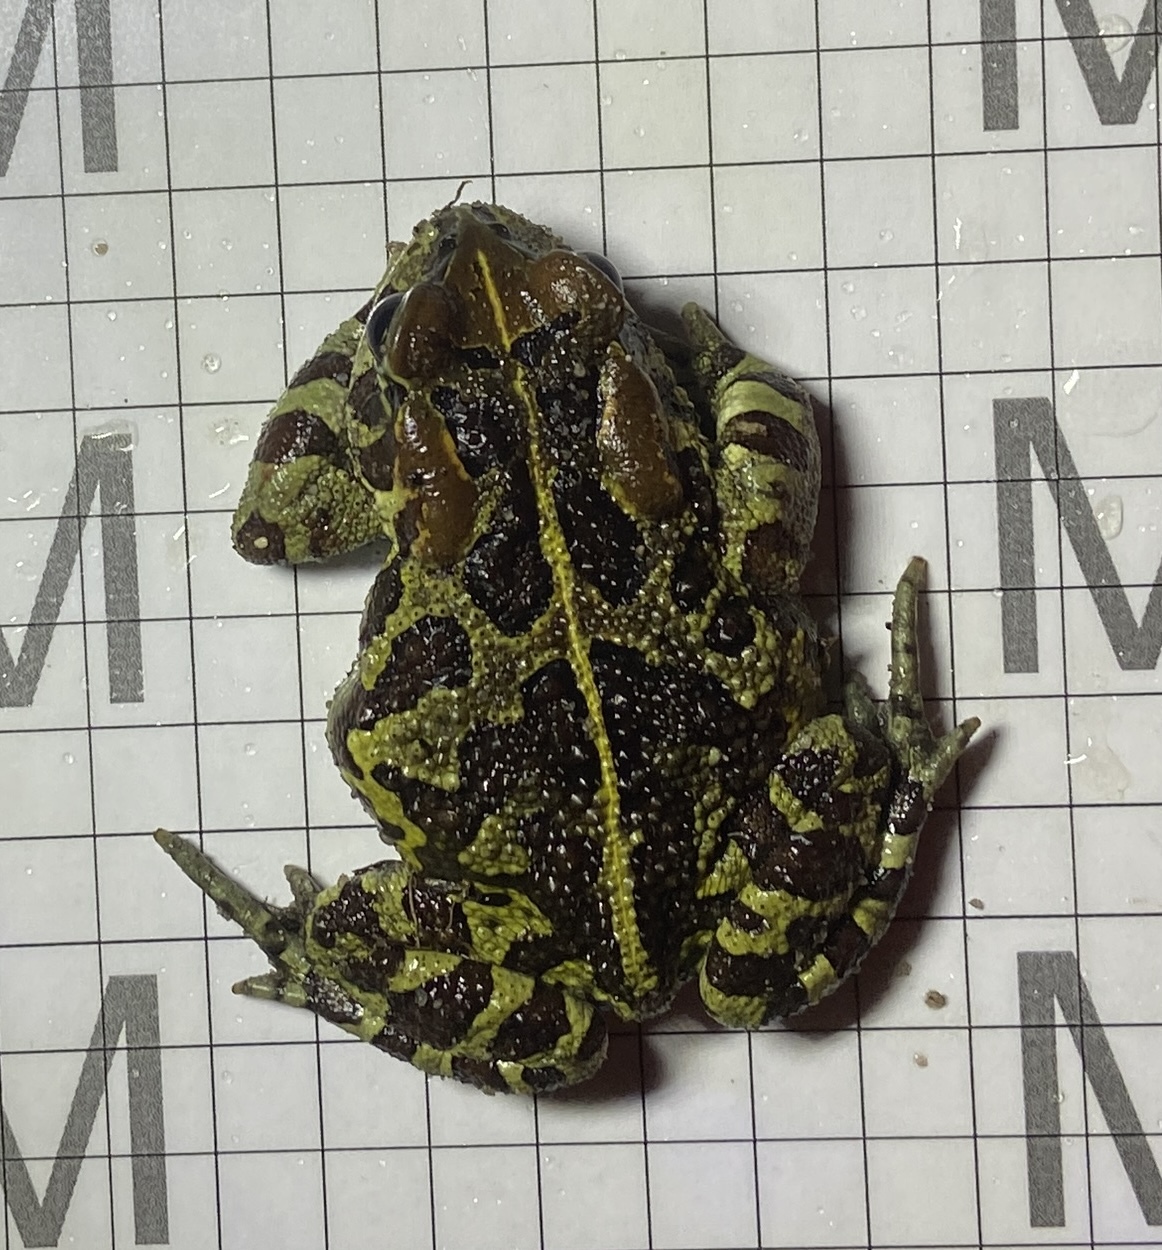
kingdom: Animalia
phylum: Chordata
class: Amphibia
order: Anura
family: Bufonidae
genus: Sclerophrys
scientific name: Sclerophrys pantherina
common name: Panther toad
